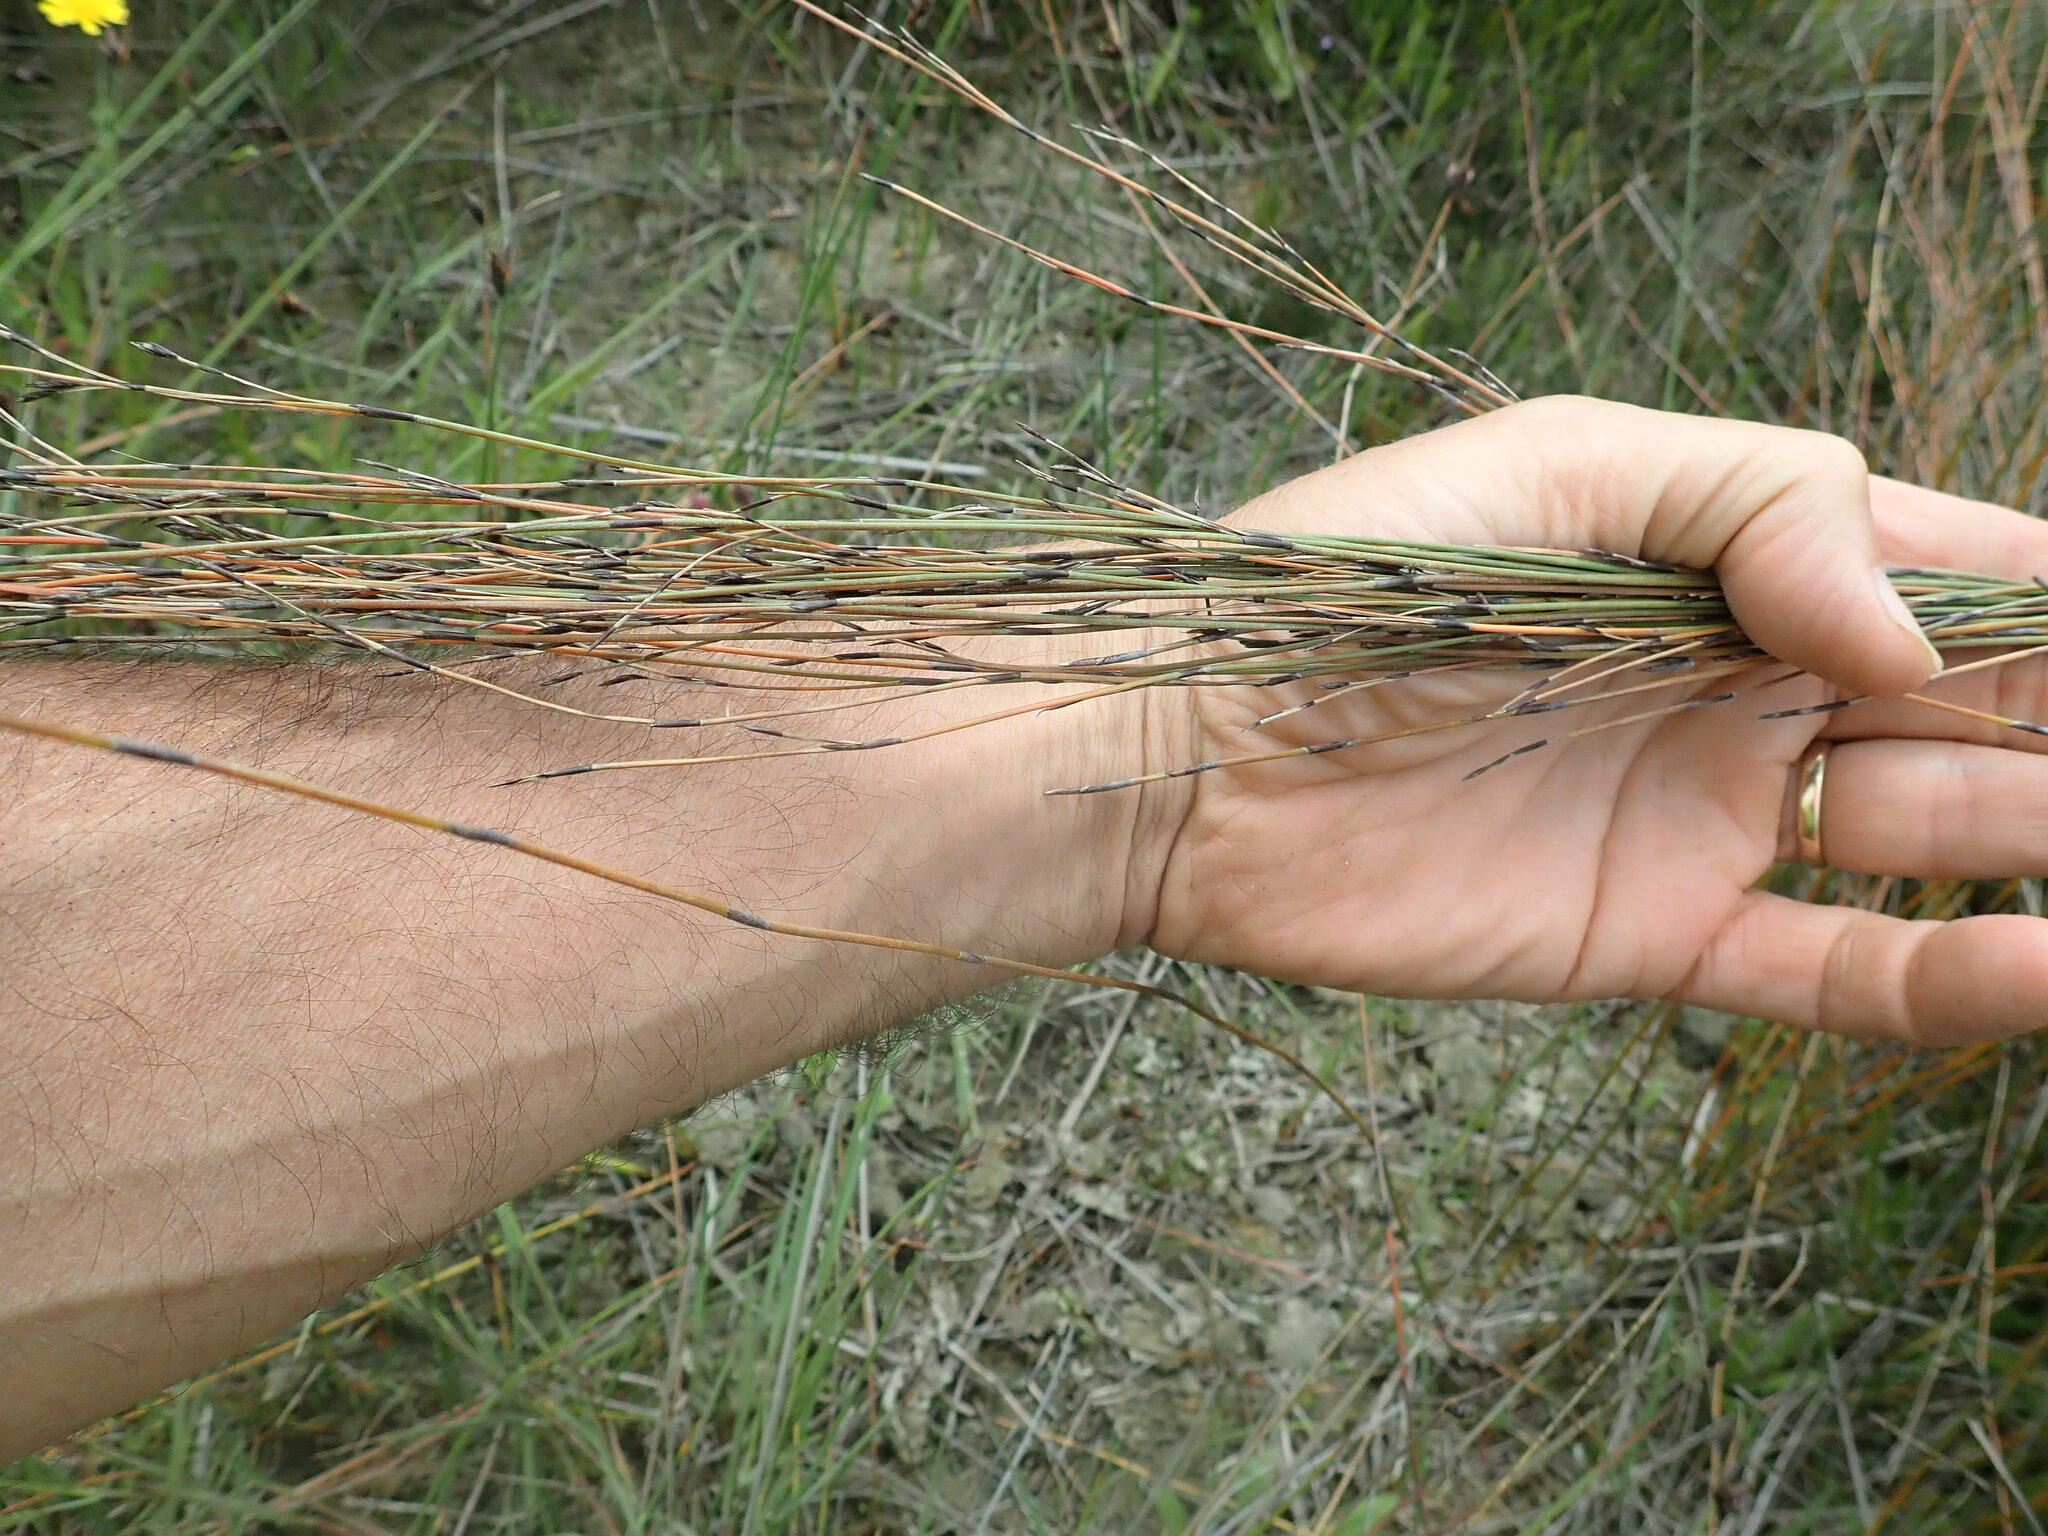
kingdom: Plantae
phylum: Tracheophyta
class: Liliopsida
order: Poales
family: Restionaceae
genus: Apodasmia
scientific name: Apodasmia similis
